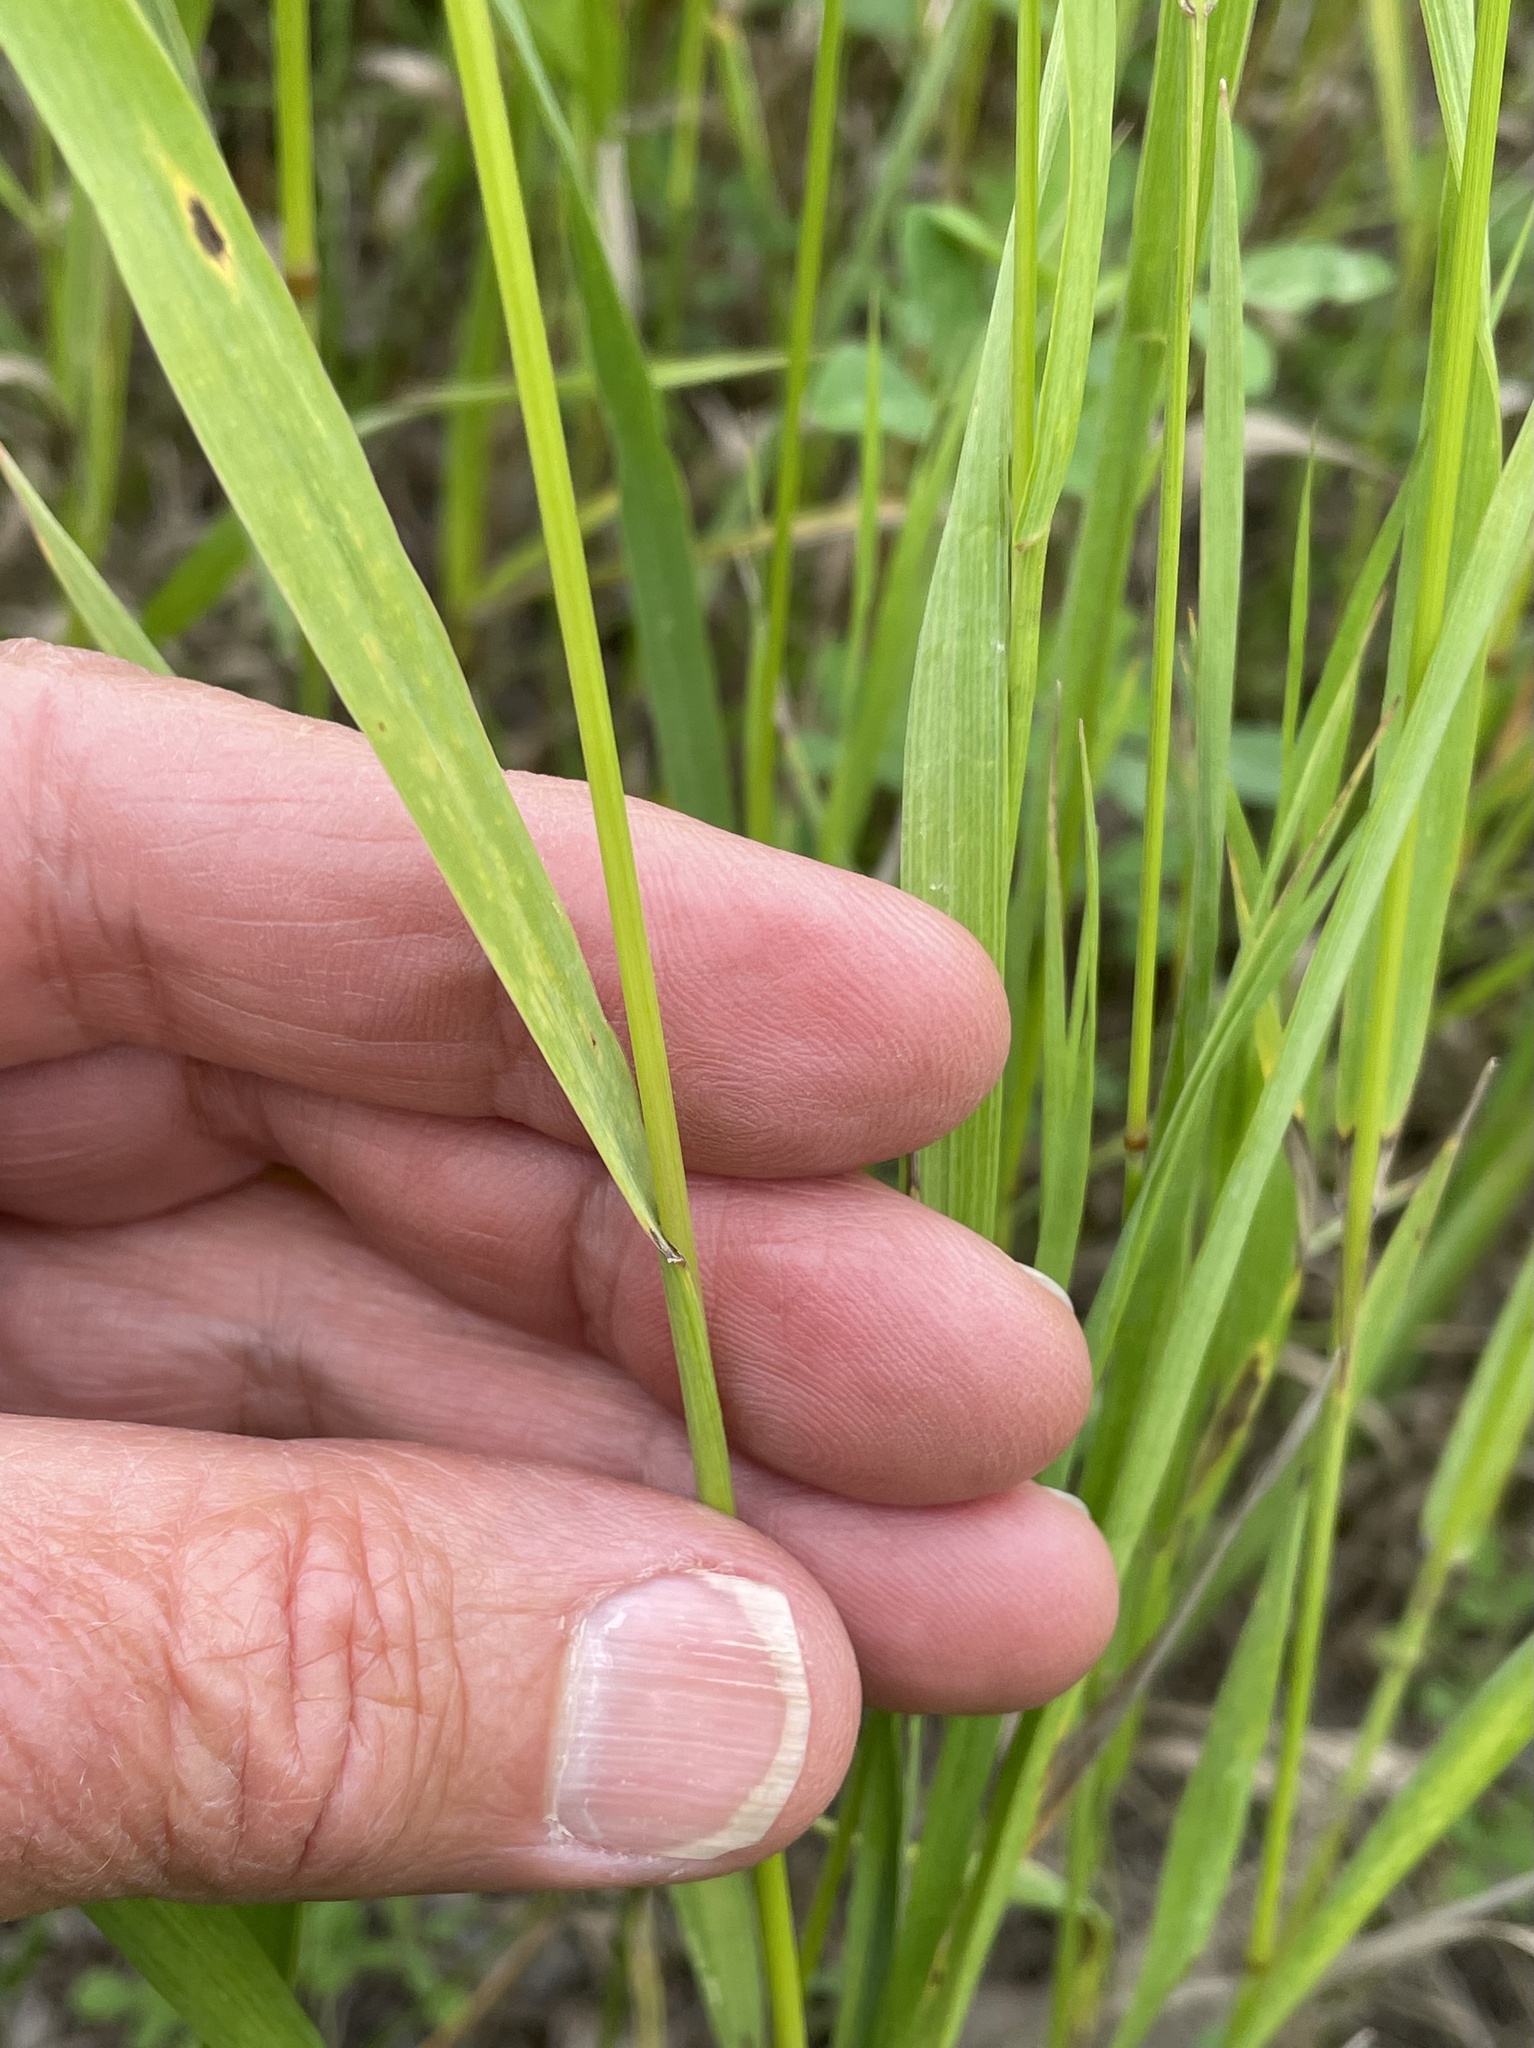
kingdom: Plantae
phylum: Tracheophyta
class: Liliopsida
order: Poales
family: Poaceae
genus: Bromus
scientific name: Bromus inermis
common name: Smooth brome
